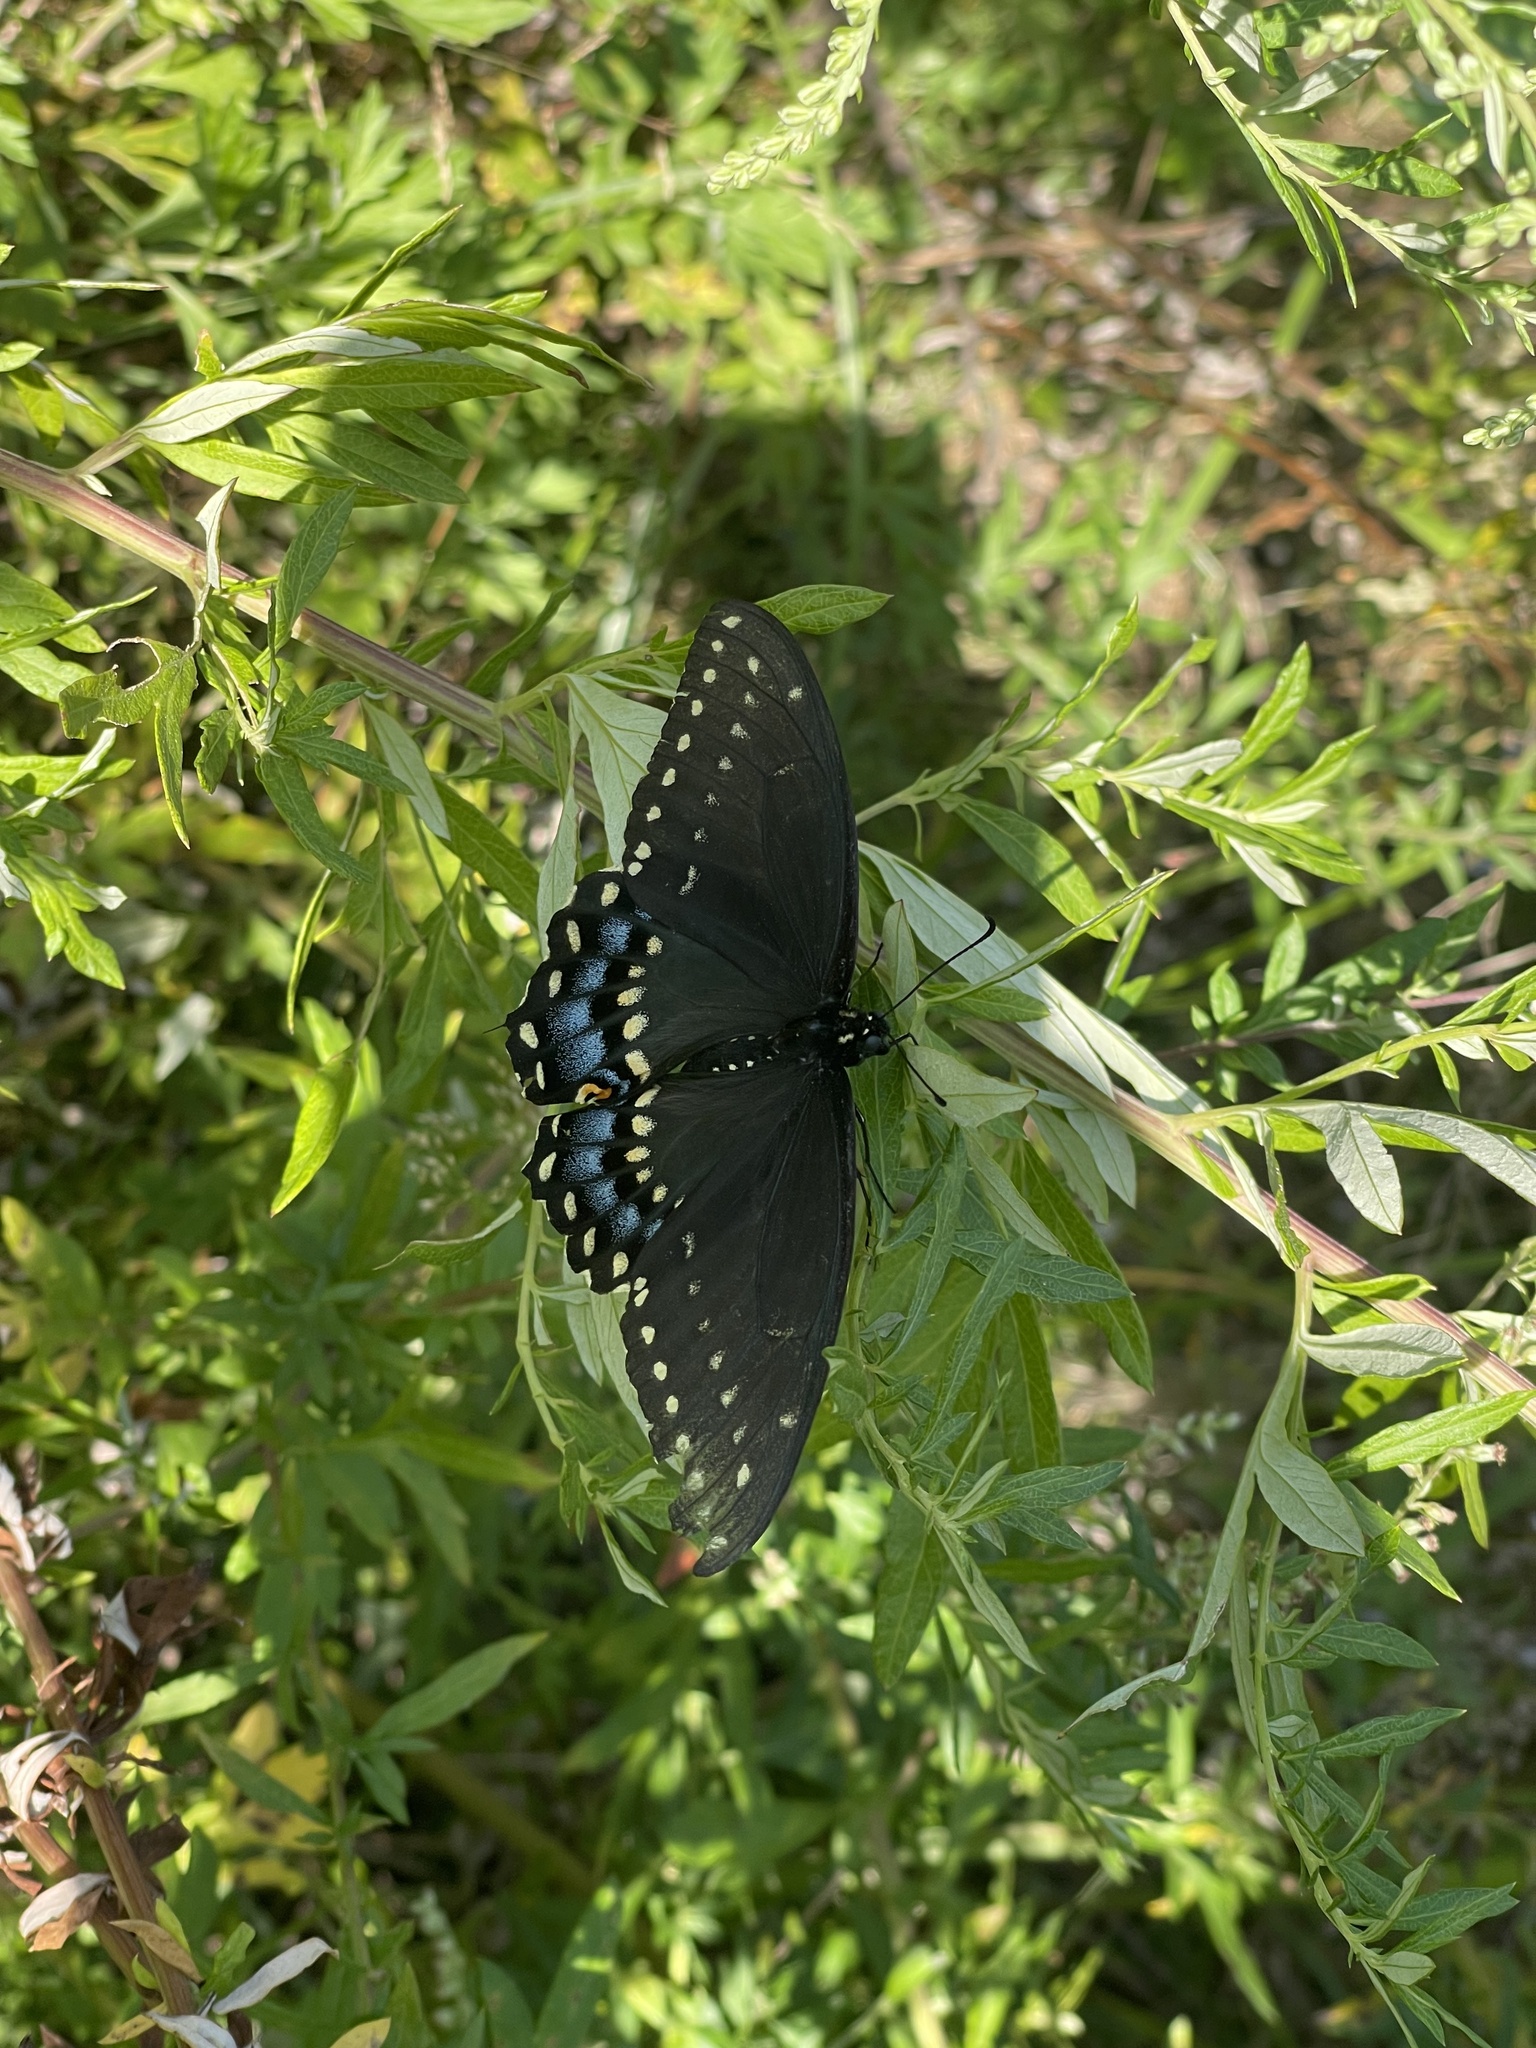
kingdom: Animalia
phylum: Arthropoda
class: Insecta
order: Lepidoptera
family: Papilionidae
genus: Papilio
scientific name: Papilio polyxenes
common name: Black swallowtail
